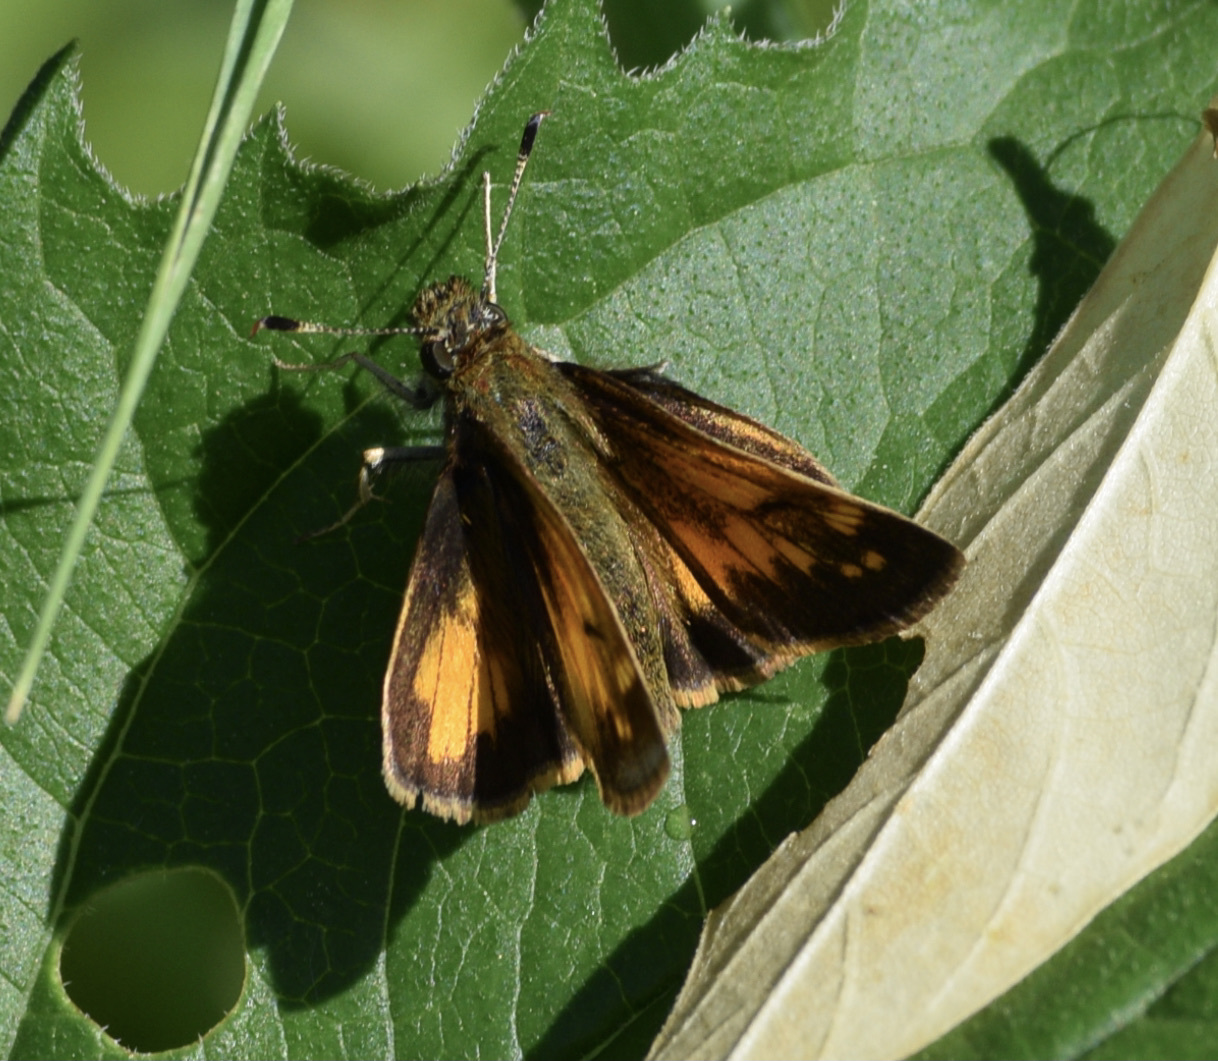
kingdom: Animalia
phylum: Arthropoda
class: Insecta
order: Lepidoptera
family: Hesperiidae
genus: Lon
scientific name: Lon hobomok
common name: Hobomok skipper
